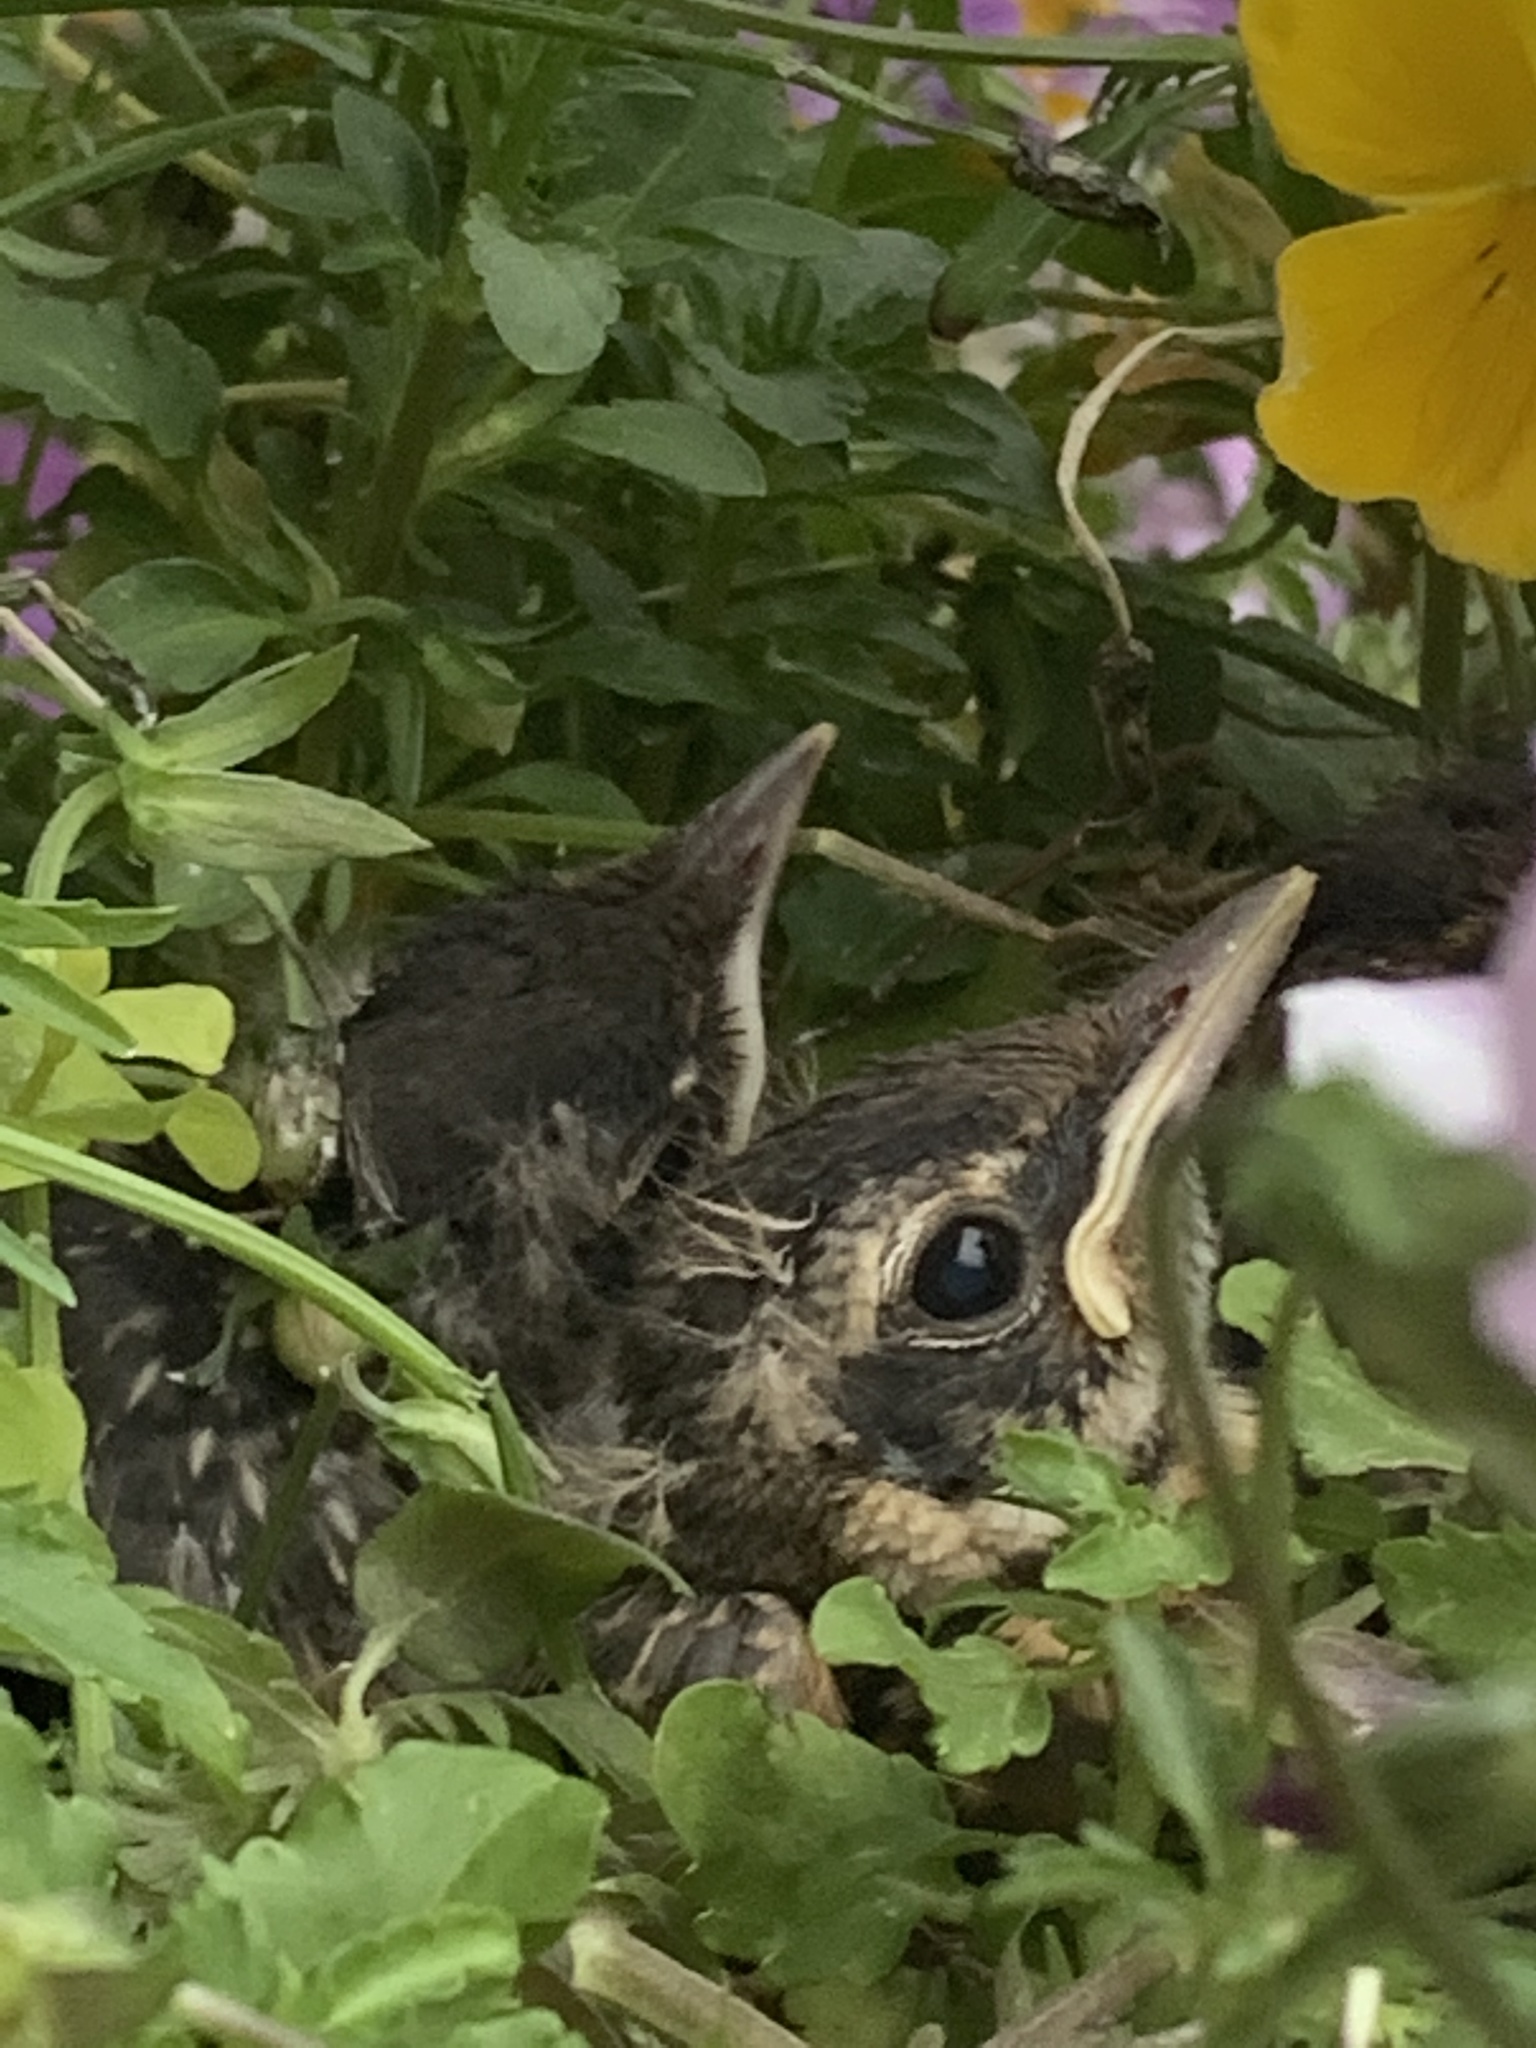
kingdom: Animalia
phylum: Chordata
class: Aves
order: Passeriformes
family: Turdidae
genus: Turdus
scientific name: Turdus migratorius
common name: American robin
